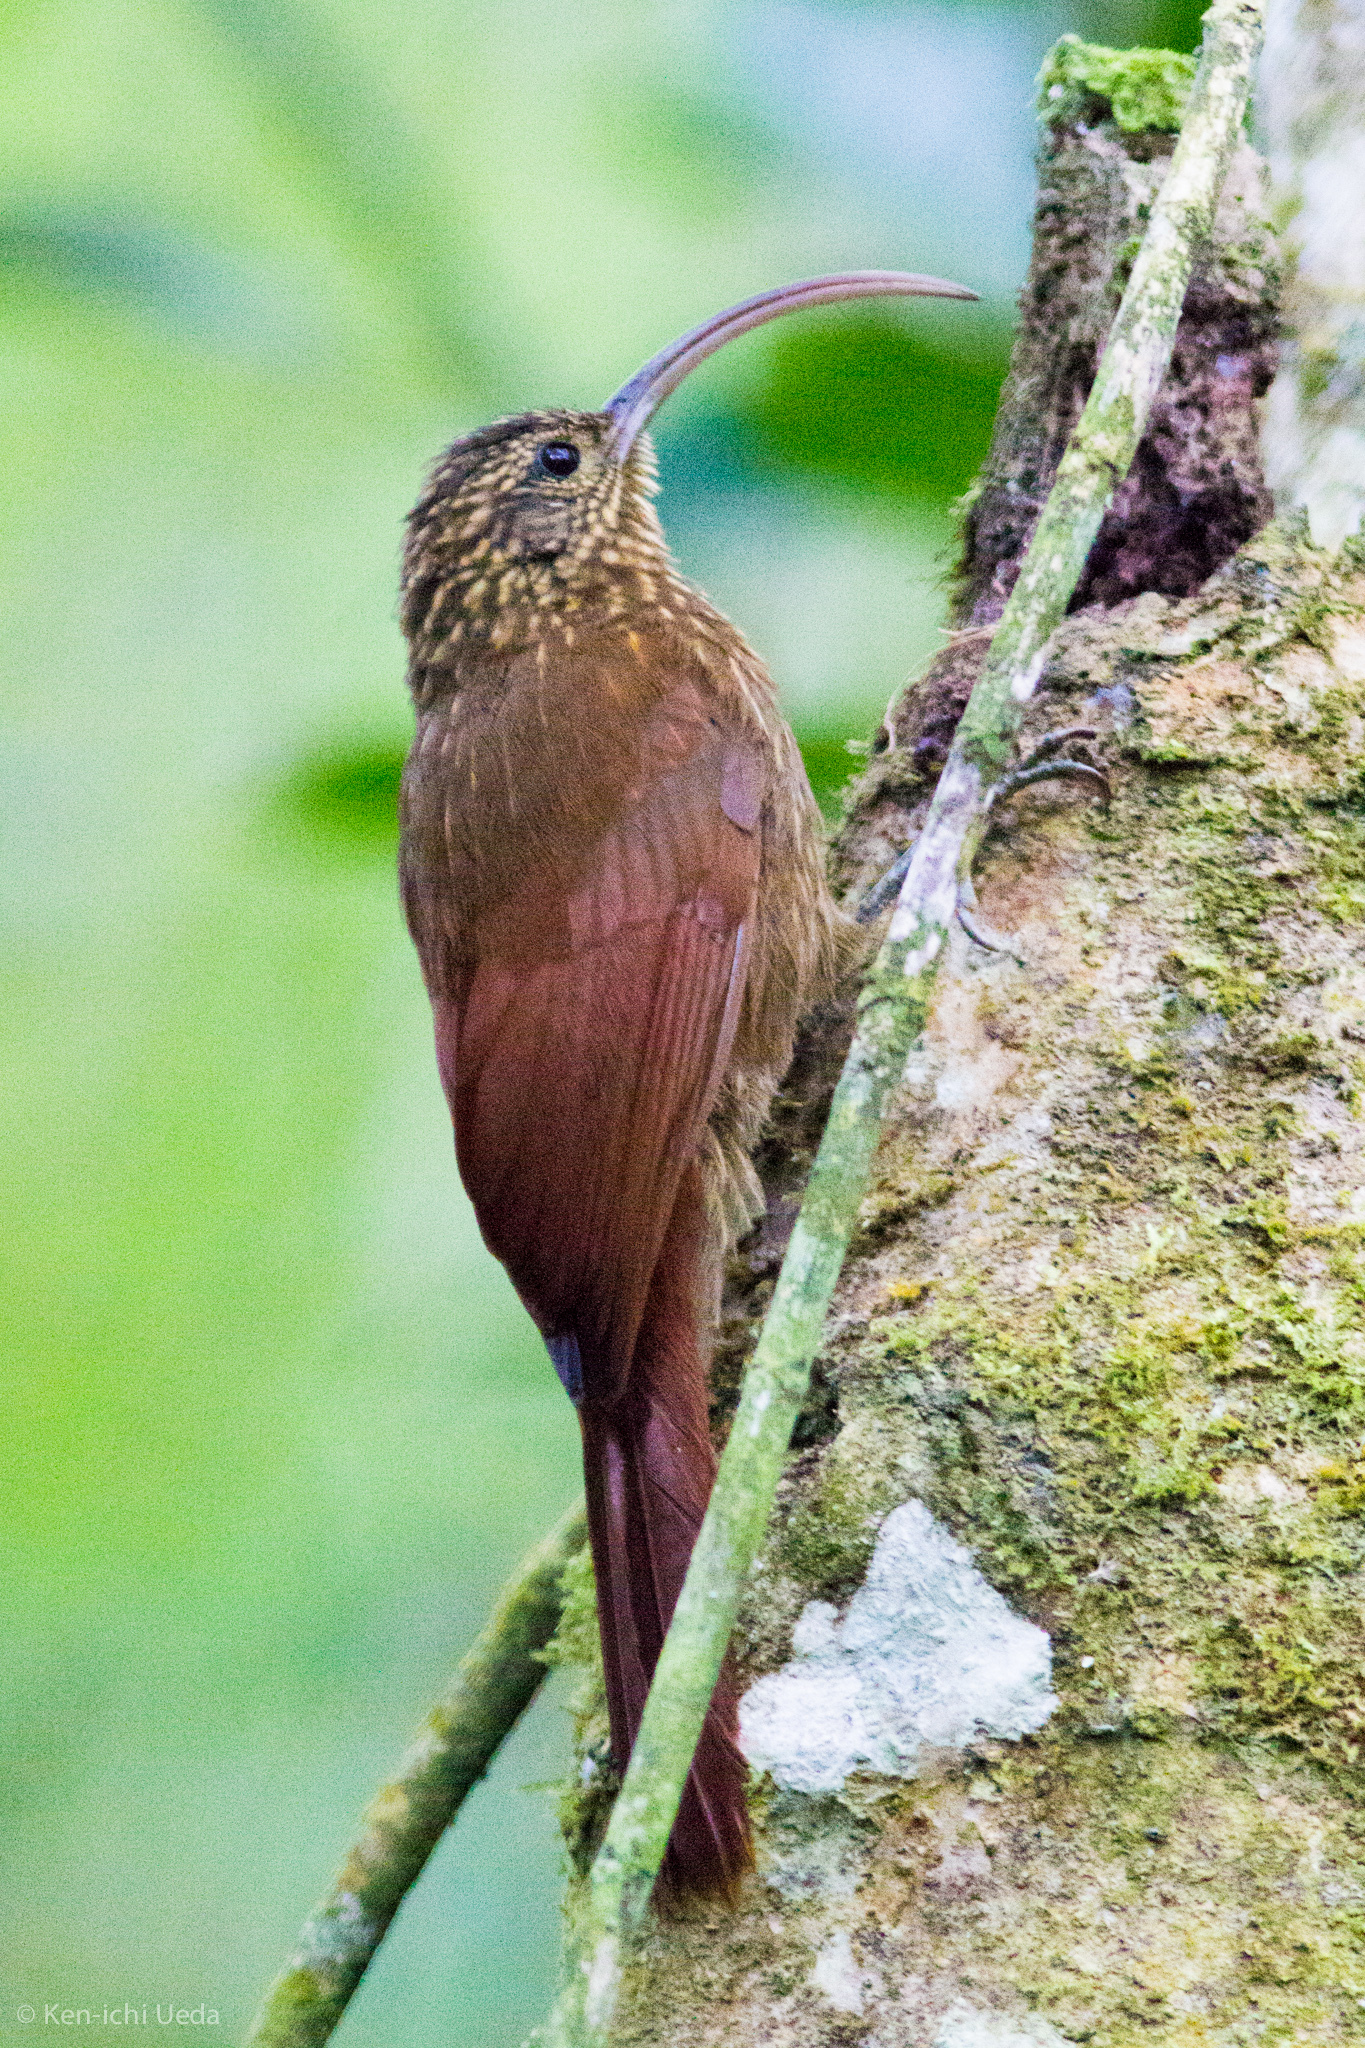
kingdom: Animalia
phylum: Chordata
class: Aves
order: Passeriformes
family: Furnariidae
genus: Campylorhamphus
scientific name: Campylorhamphus trochilirostris
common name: Red-billed scythebill
